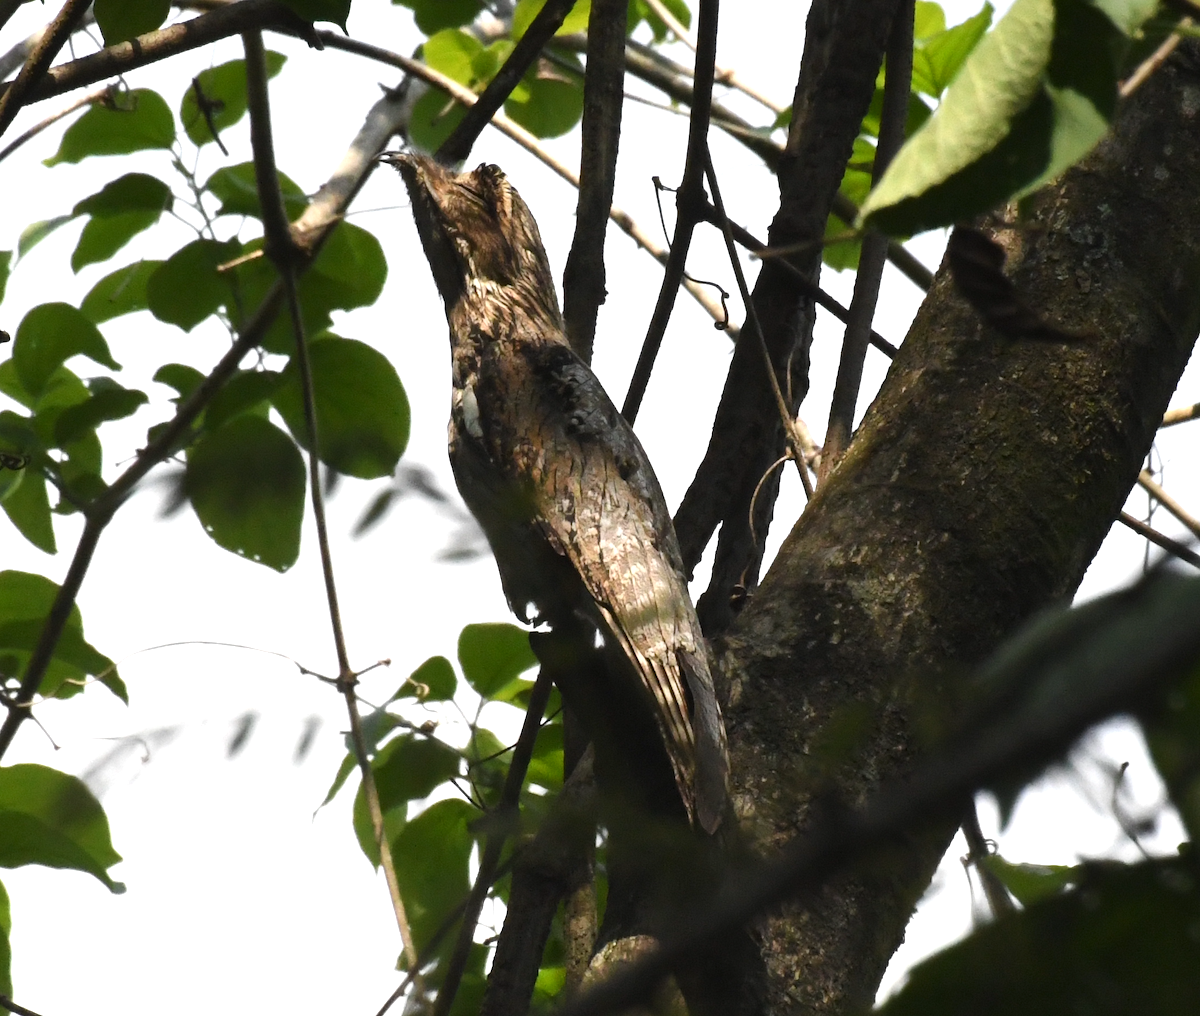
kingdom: Animalia
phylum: Chordata
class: Aves
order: Nyctibiiformes
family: Nyctibiidae
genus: Nyctibius
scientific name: Nyctibius jamaicensis
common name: Northern potoo
